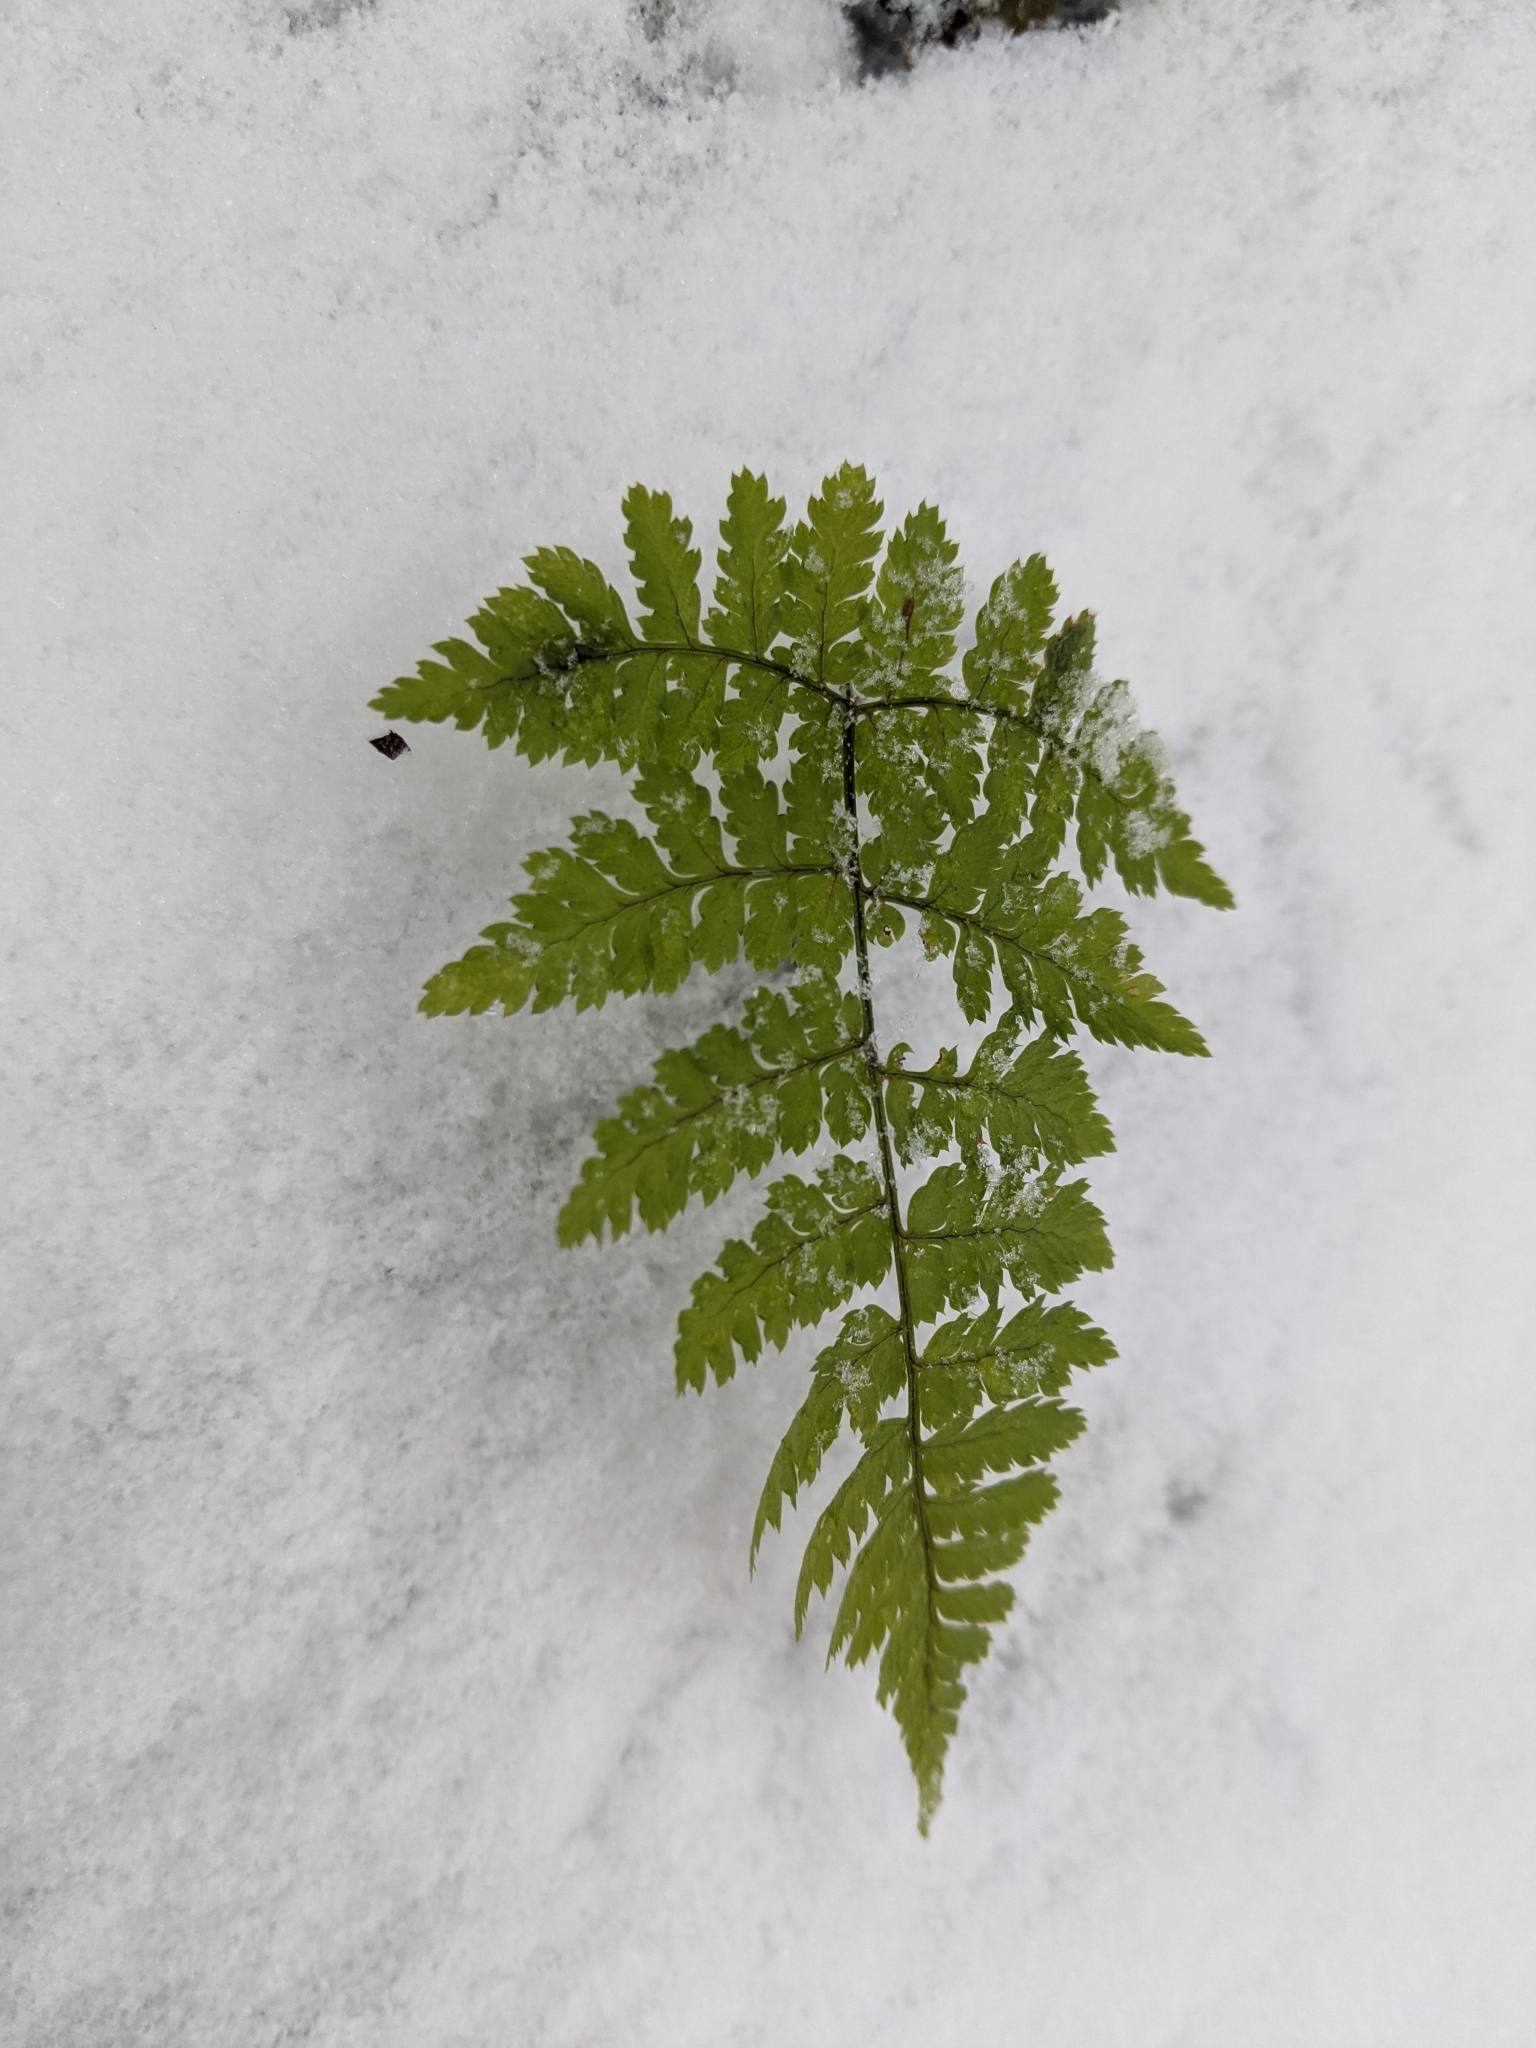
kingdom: Plantae
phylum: Tracheophyta
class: Polypodiopsida
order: Polypodiales
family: Dryopteridaceae
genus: Dryopteris
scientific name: Dryopteris
